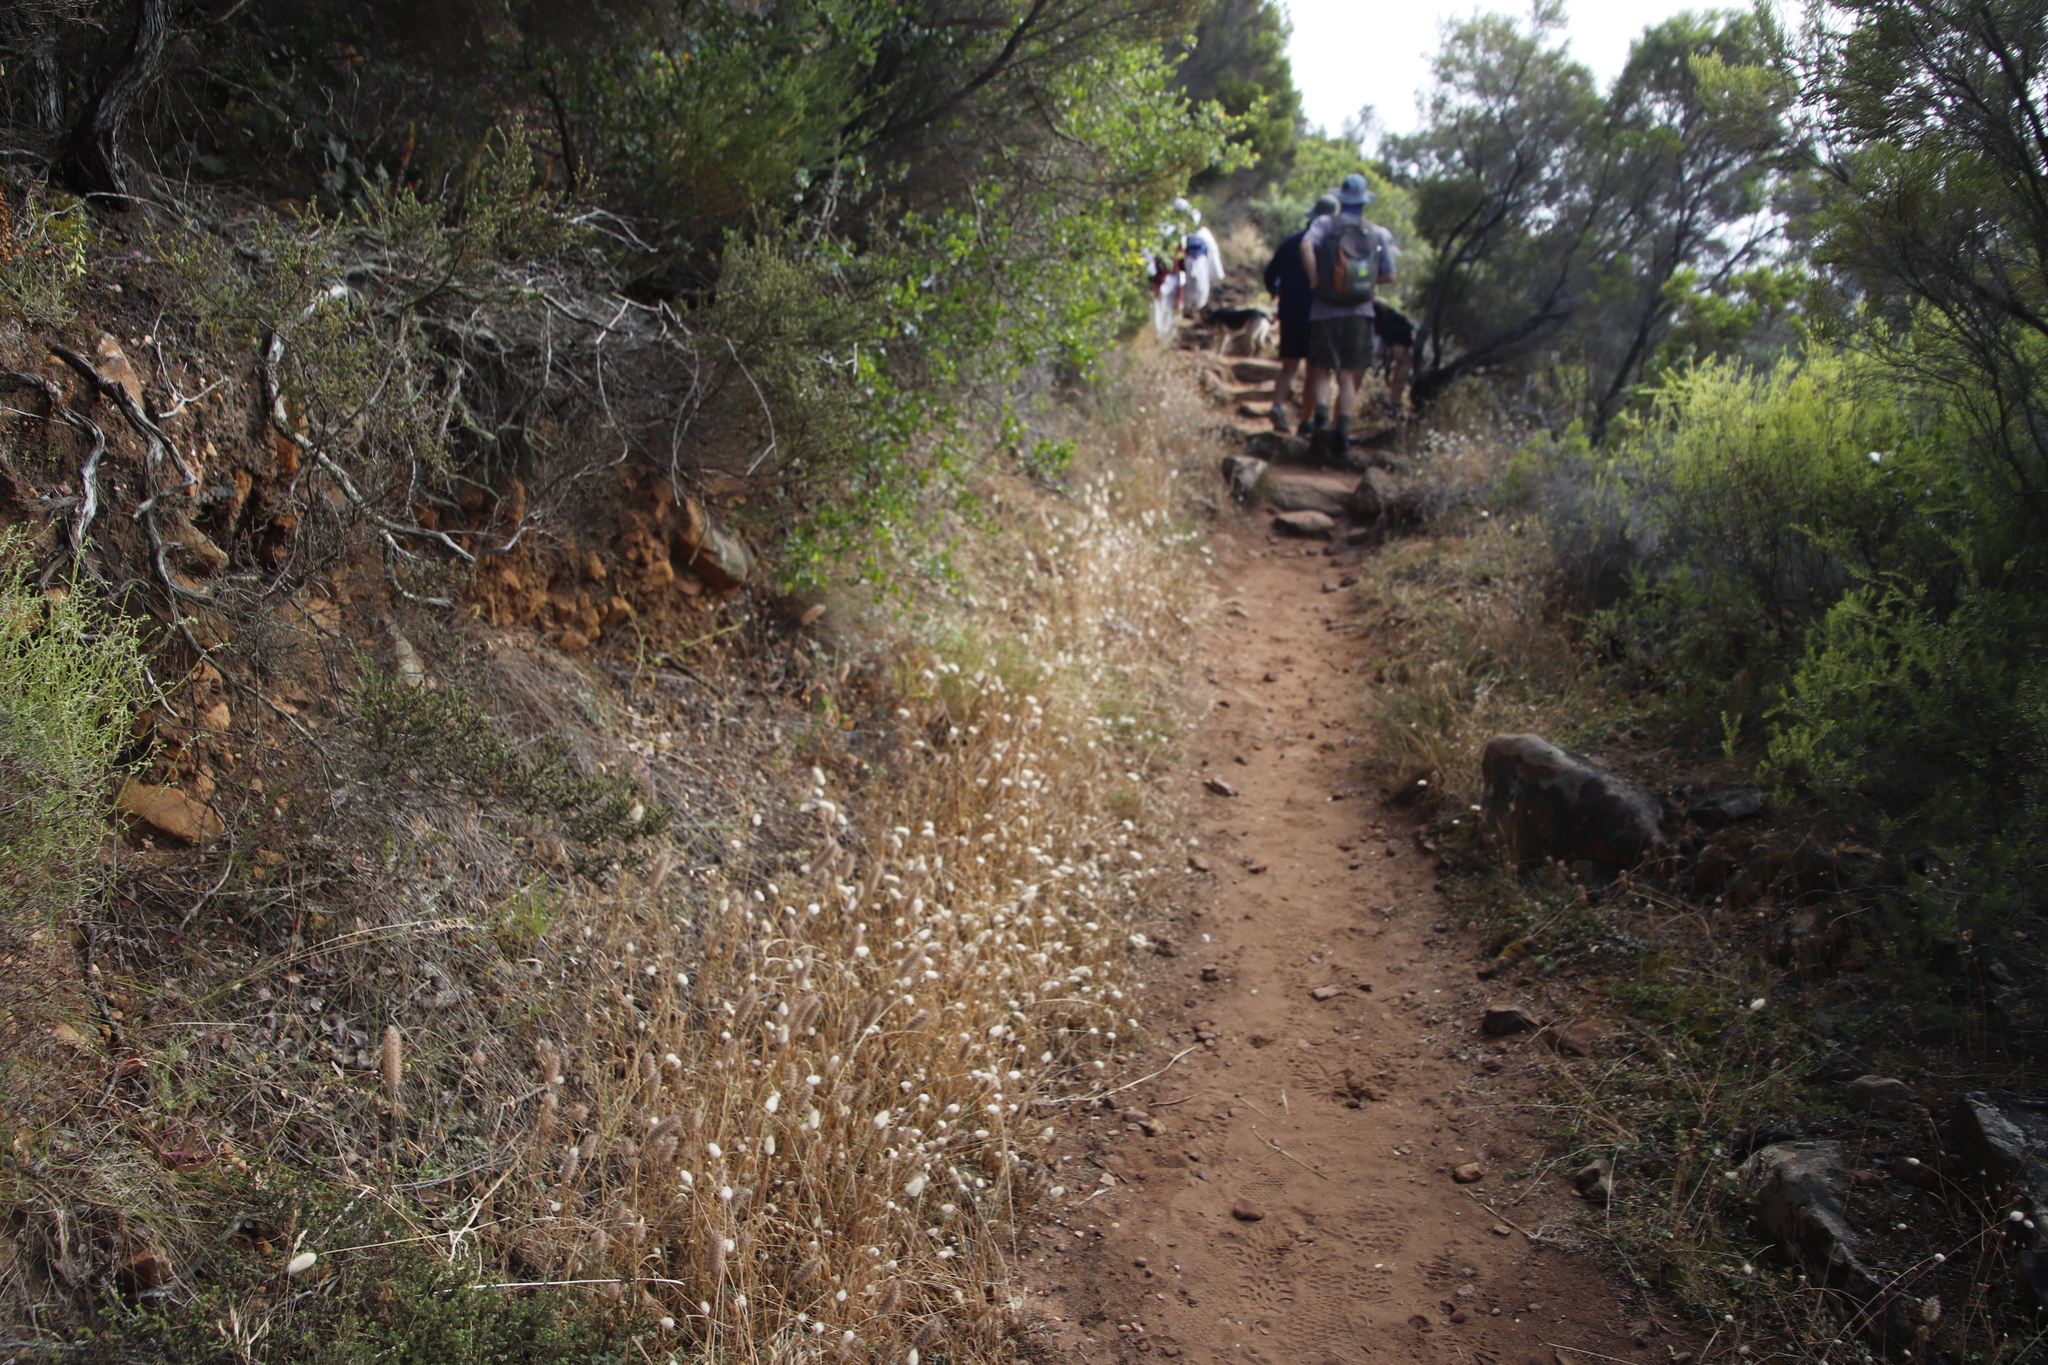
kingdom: Plantae
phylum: Tracheophyta
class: Liliopsida
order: Poales
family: Poaceae
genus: Lagurus
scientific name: Lagurus ovatus
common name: Hare's-tail
